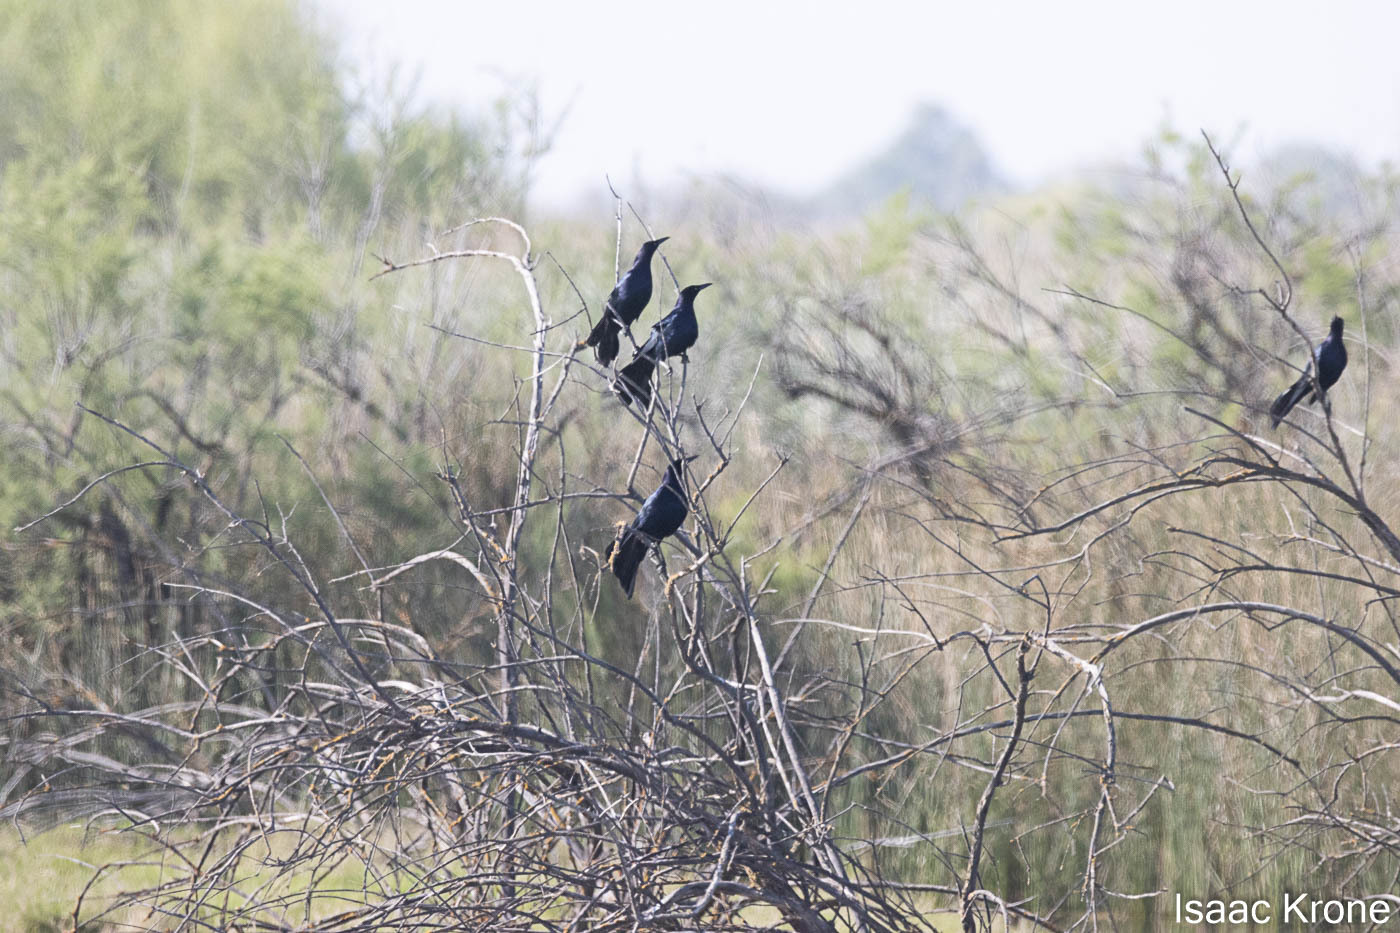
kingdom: Animalia
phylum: Chordata
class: Aves
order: Passeriformes
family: Icteridae
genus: Quiscalus
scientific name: Quiscalus mexicanus
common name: Great-tailed grackle
